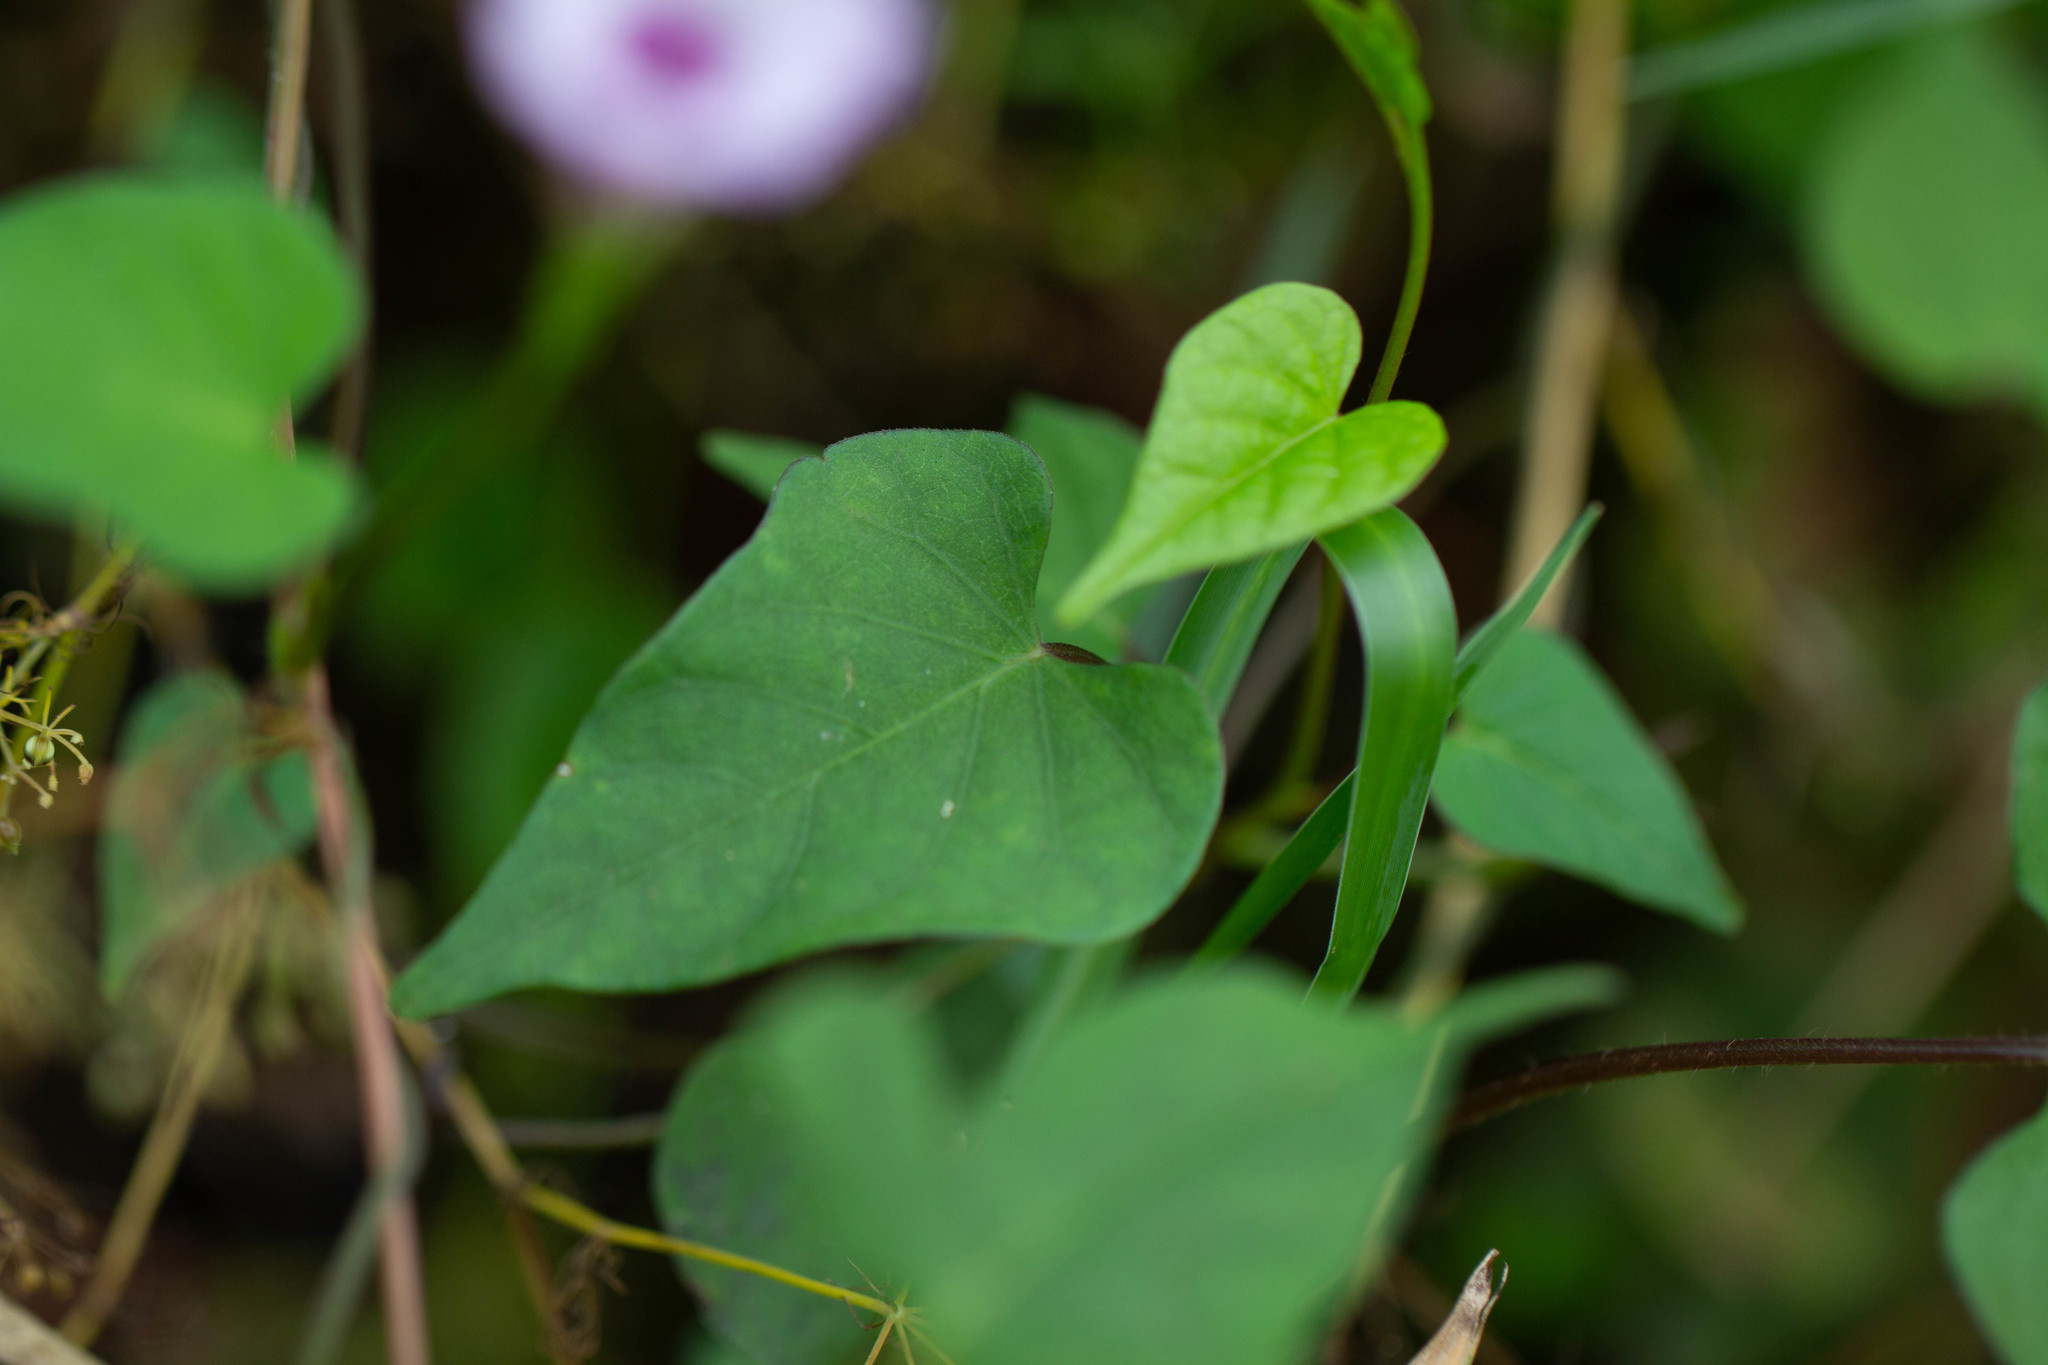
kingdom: Plantae
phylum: Tracheophyta
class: Magnoliopsida
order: Solanales
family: Convolvulaceae
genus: Ipomoea
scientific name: Ipomoea triloba
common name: Little-bell
